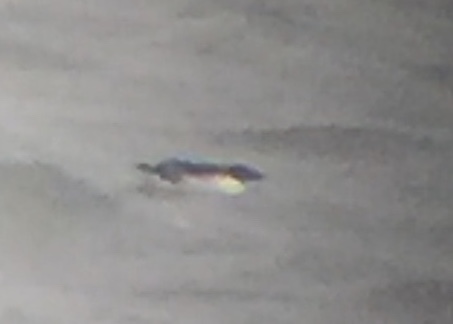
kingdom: Animalia
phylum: Chordata
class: Aves
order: Charadriiformes
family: Alcidae
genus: Uria
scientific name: Uria lomvia
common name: Thick-billed murre
